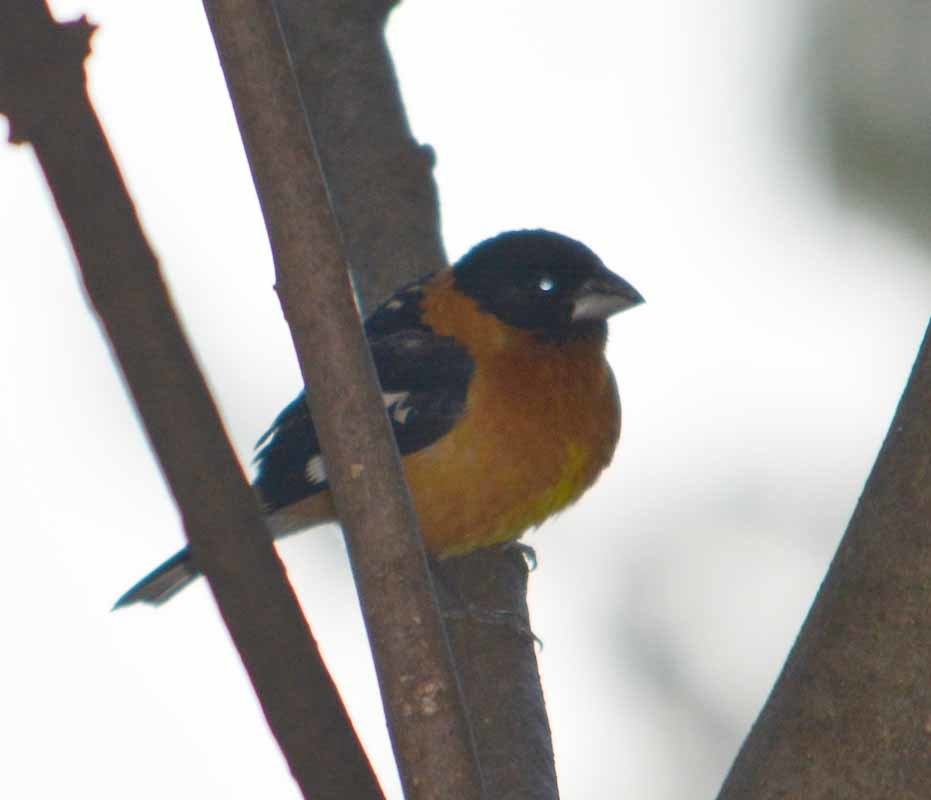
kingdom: Animalia
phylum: Chordata
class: Aves
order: Passeriformes
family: Cardinalidae
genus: Pheucticus
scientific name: Pheucticus melanocephalus
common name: Black-headed grosbeak
